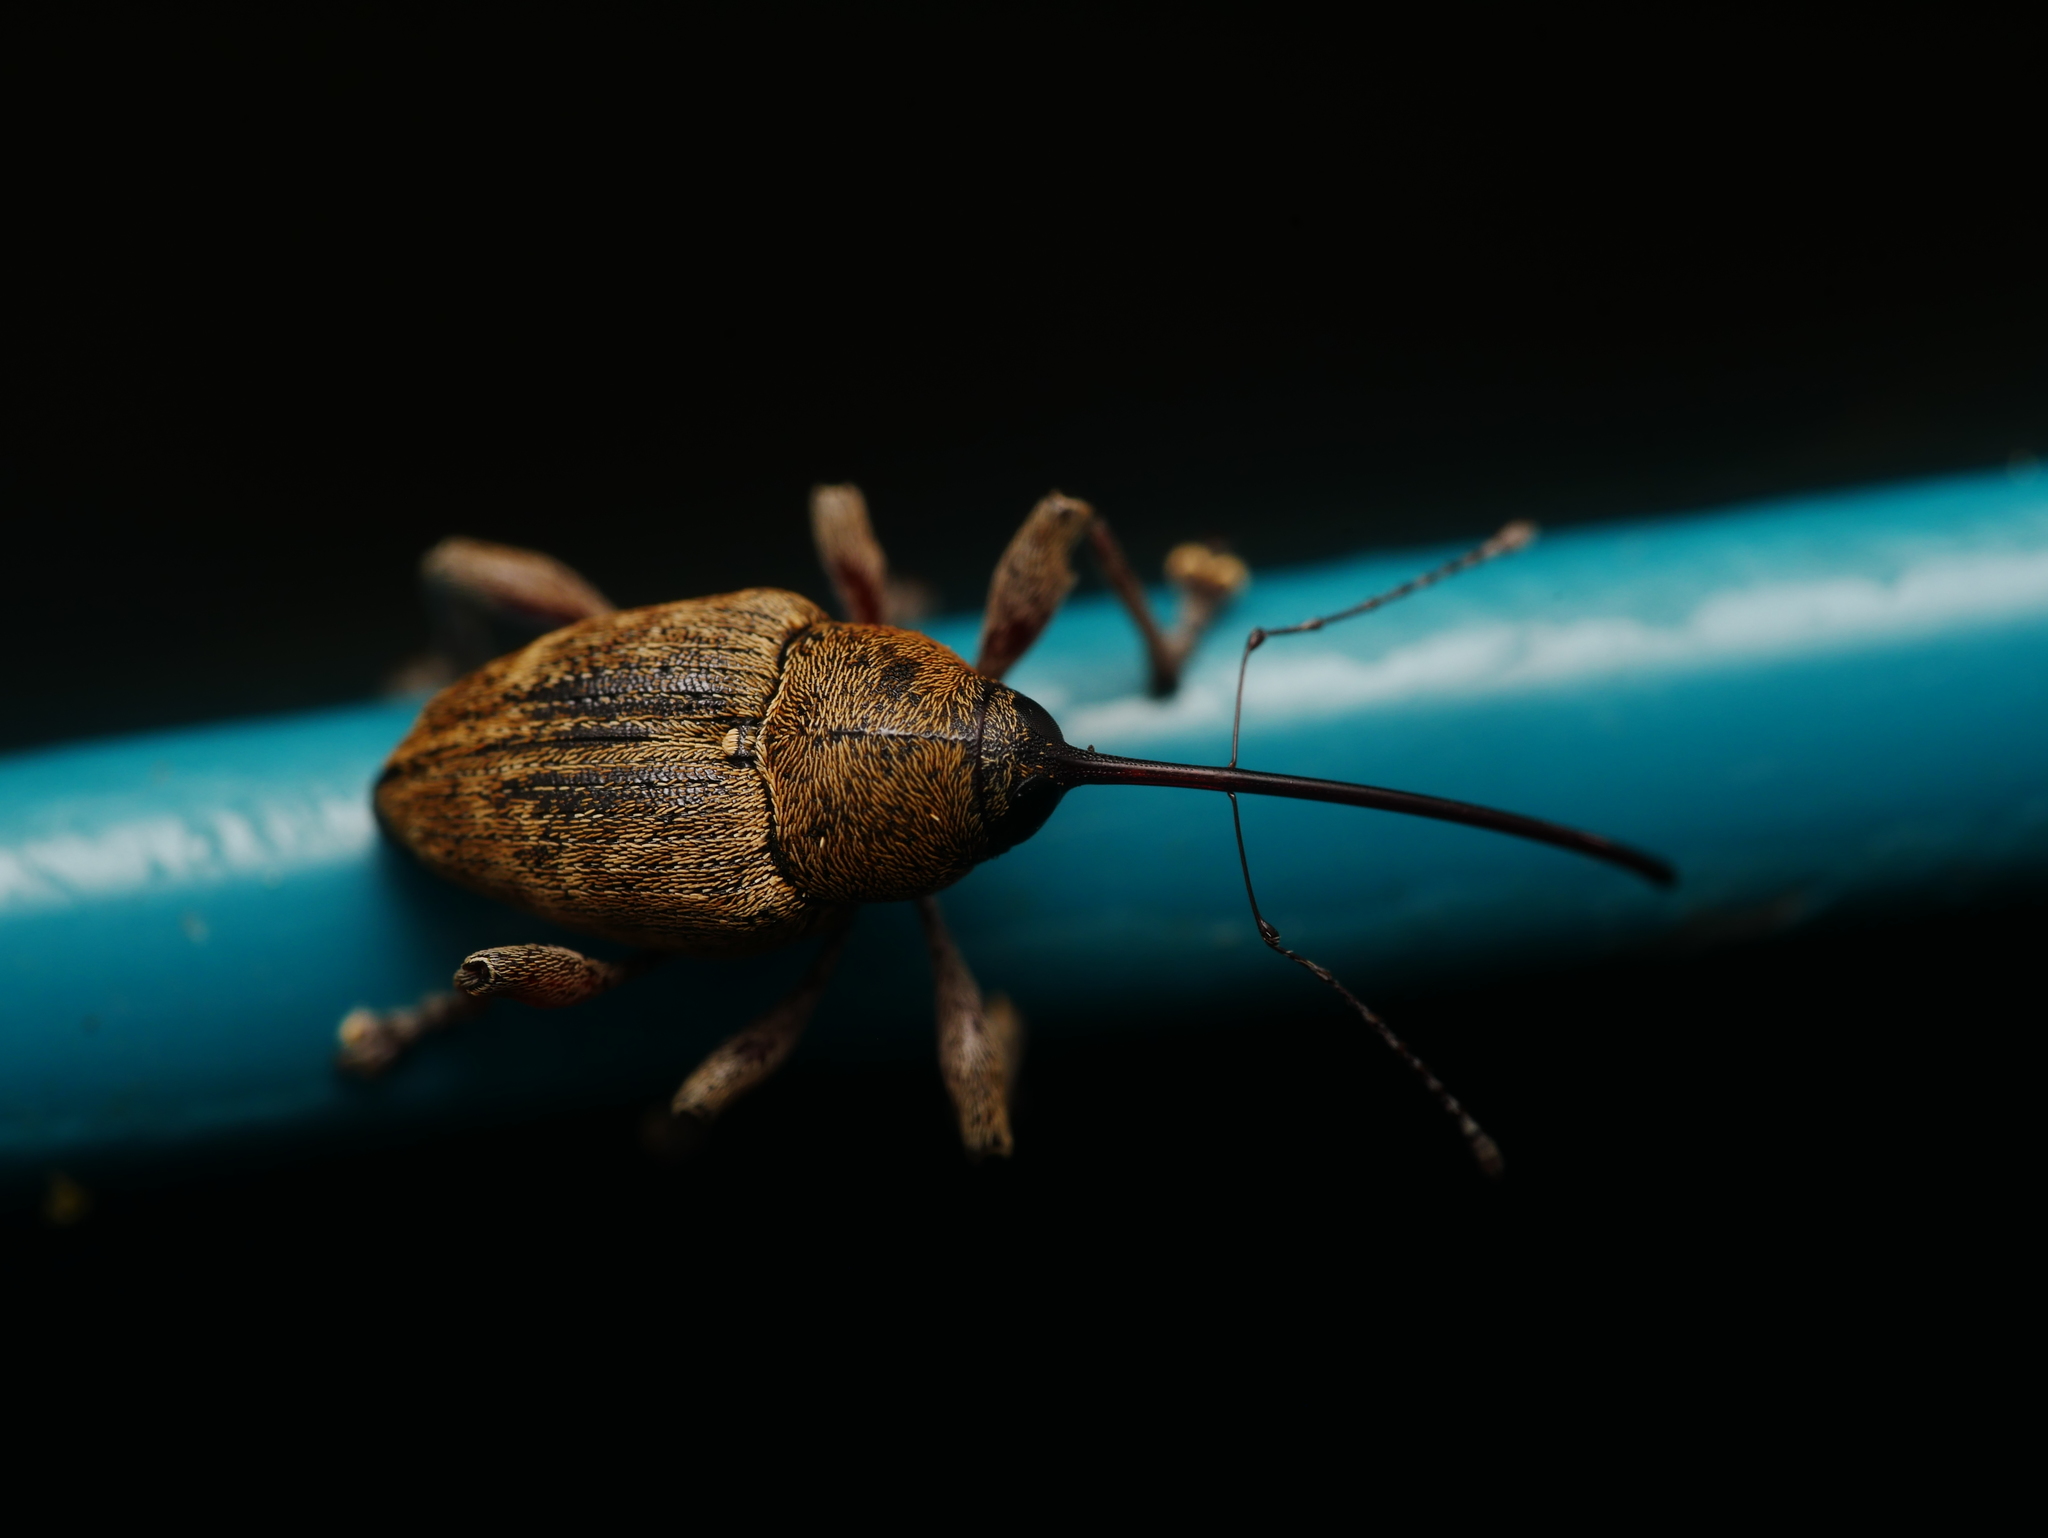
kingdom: Animalia
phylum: Arthropoda
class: Insecta
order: Coleoptera
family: Curculionidae
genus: Curculio
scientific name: Curculio glandium
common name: Acorn weevil
